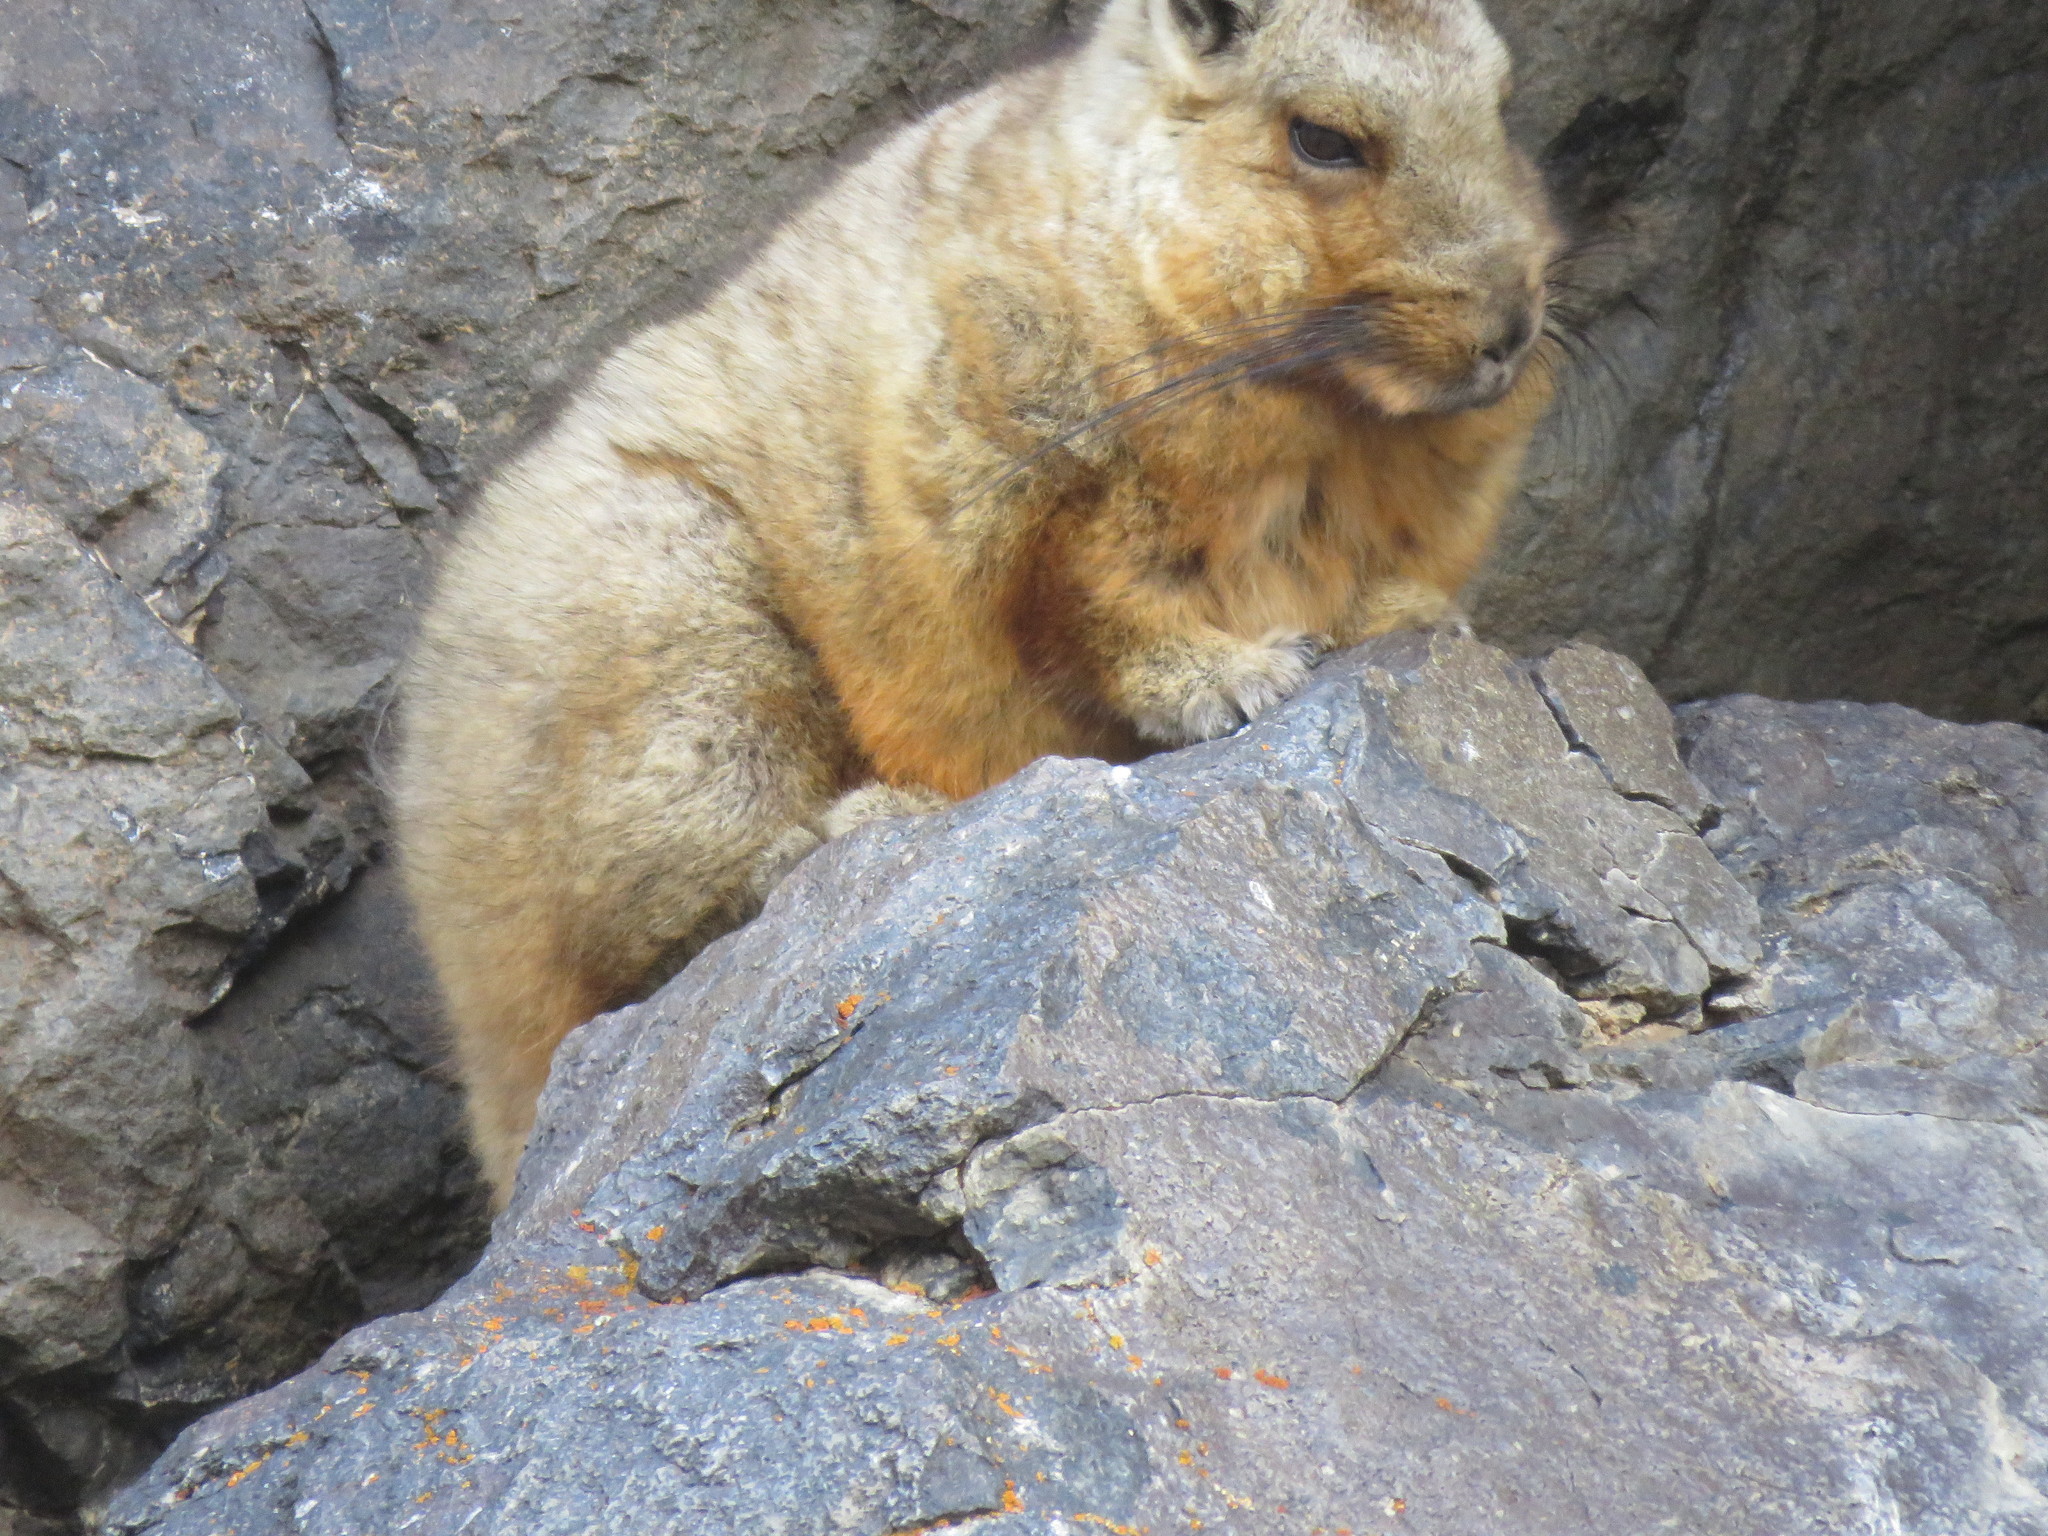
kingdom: Animalia
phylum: Chordata
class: Mammalia
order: Rodentia
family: Chinchillidae
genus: Lagidium
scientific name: Lagidium wolffsohni
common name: Wolffsohn's viscacha
